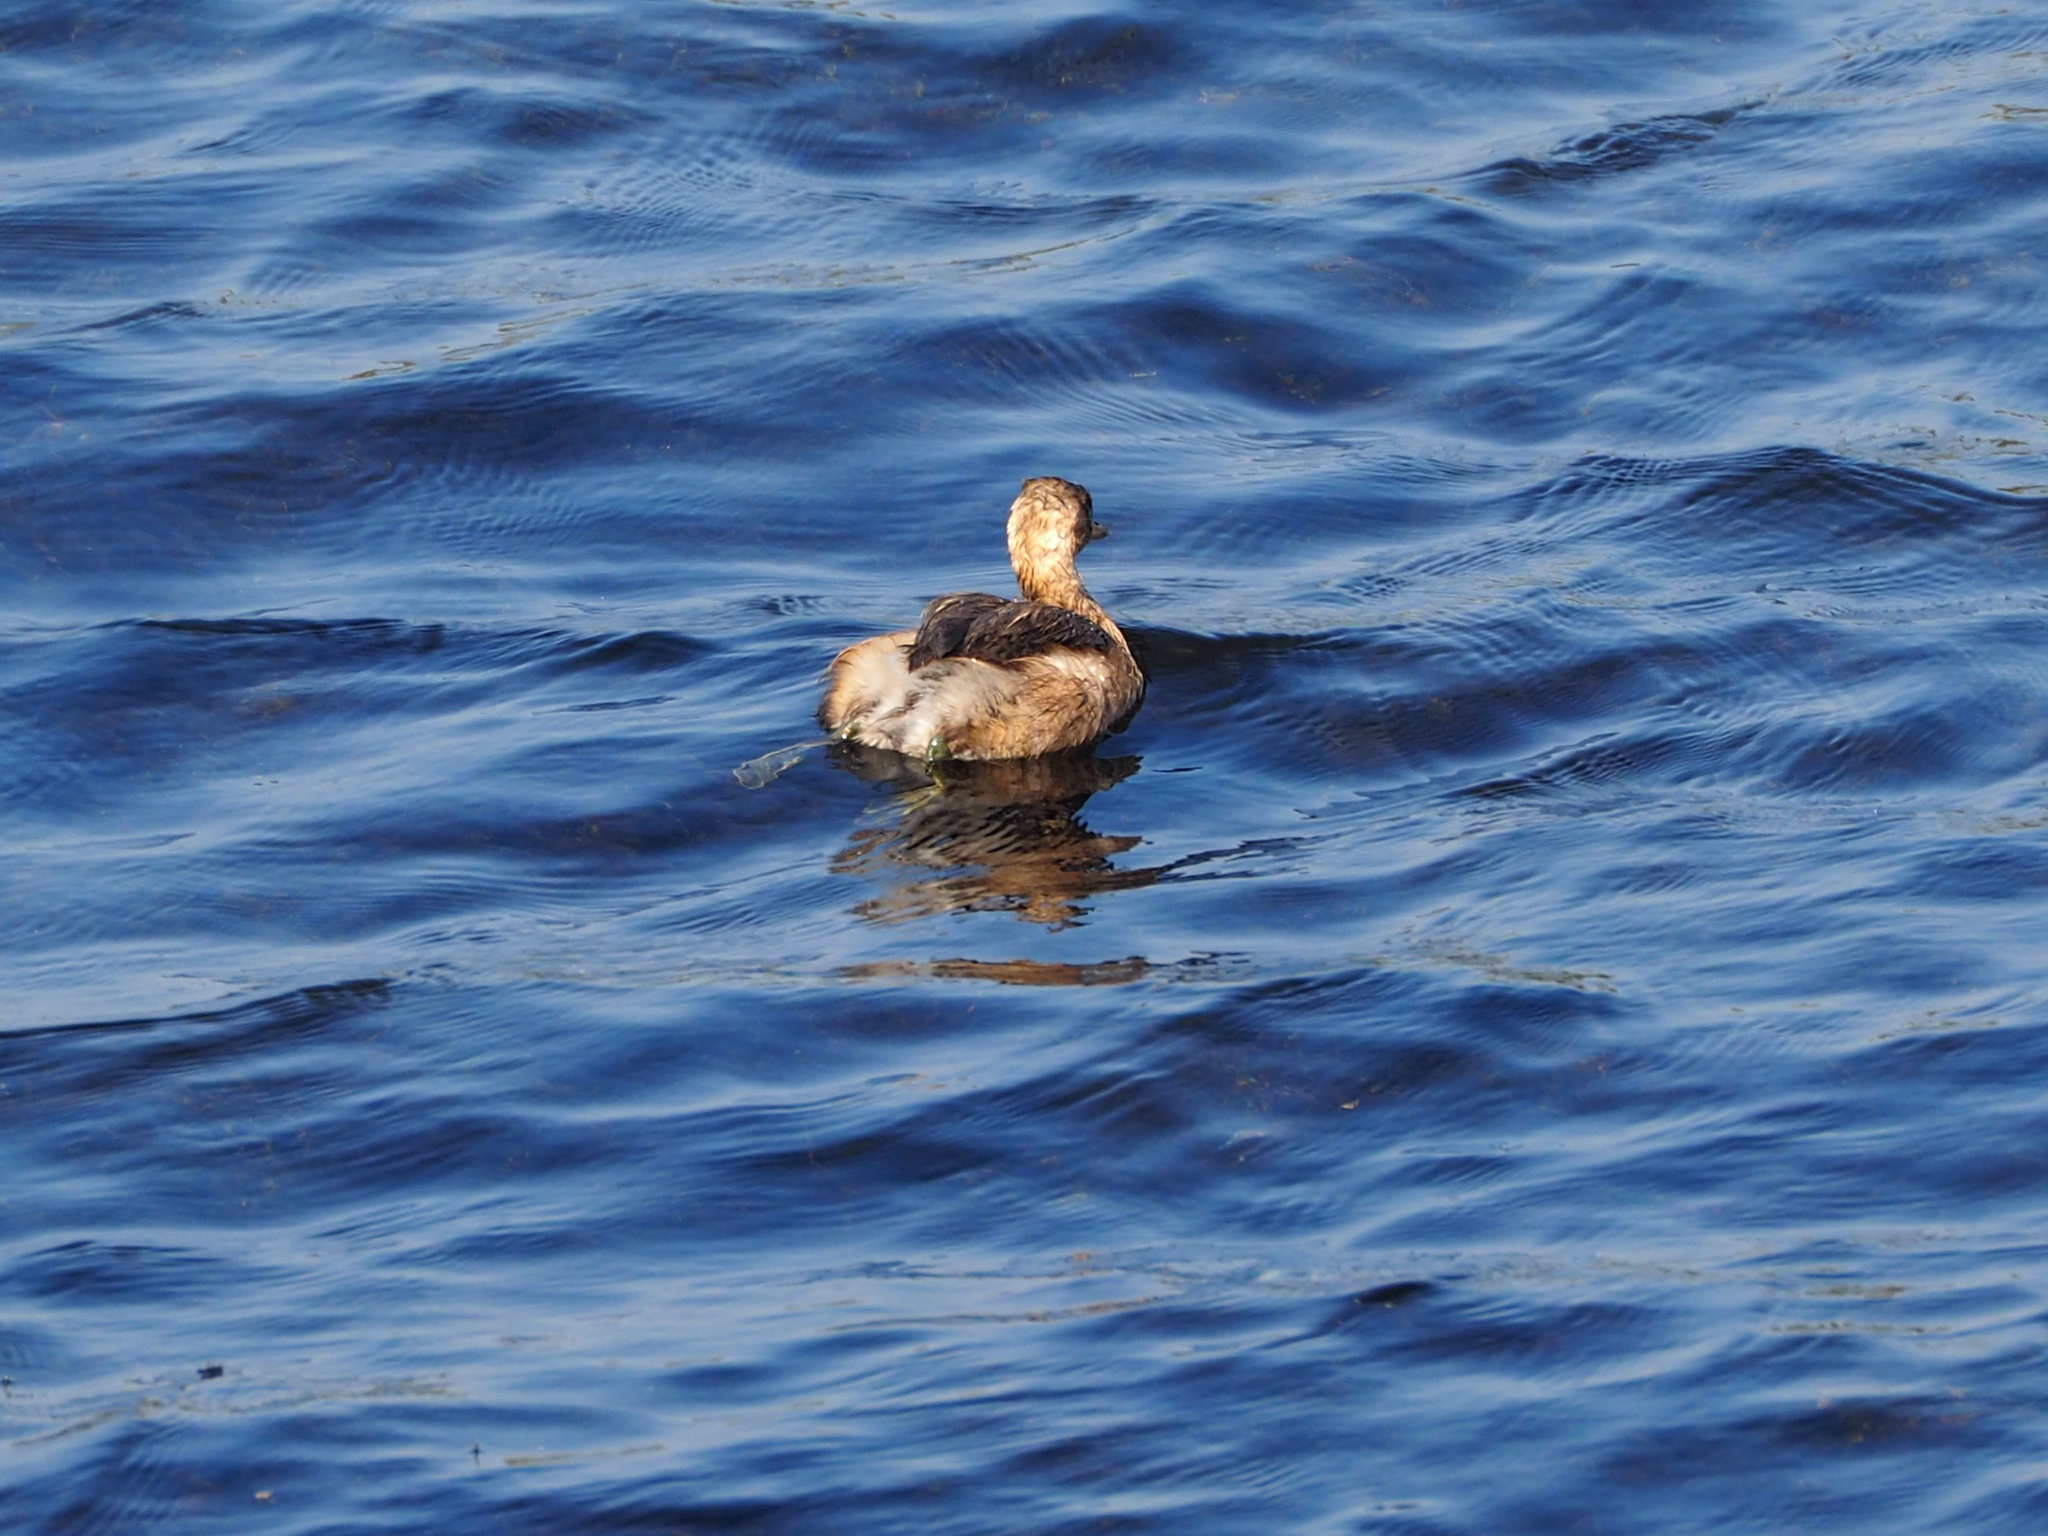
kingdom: Animalia
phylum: Chordata
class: Aves
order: Podicipediformes
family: Podicipedidae
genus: Tachybaptus
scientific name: Tachybaptus ruficollis
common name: Little grebe
